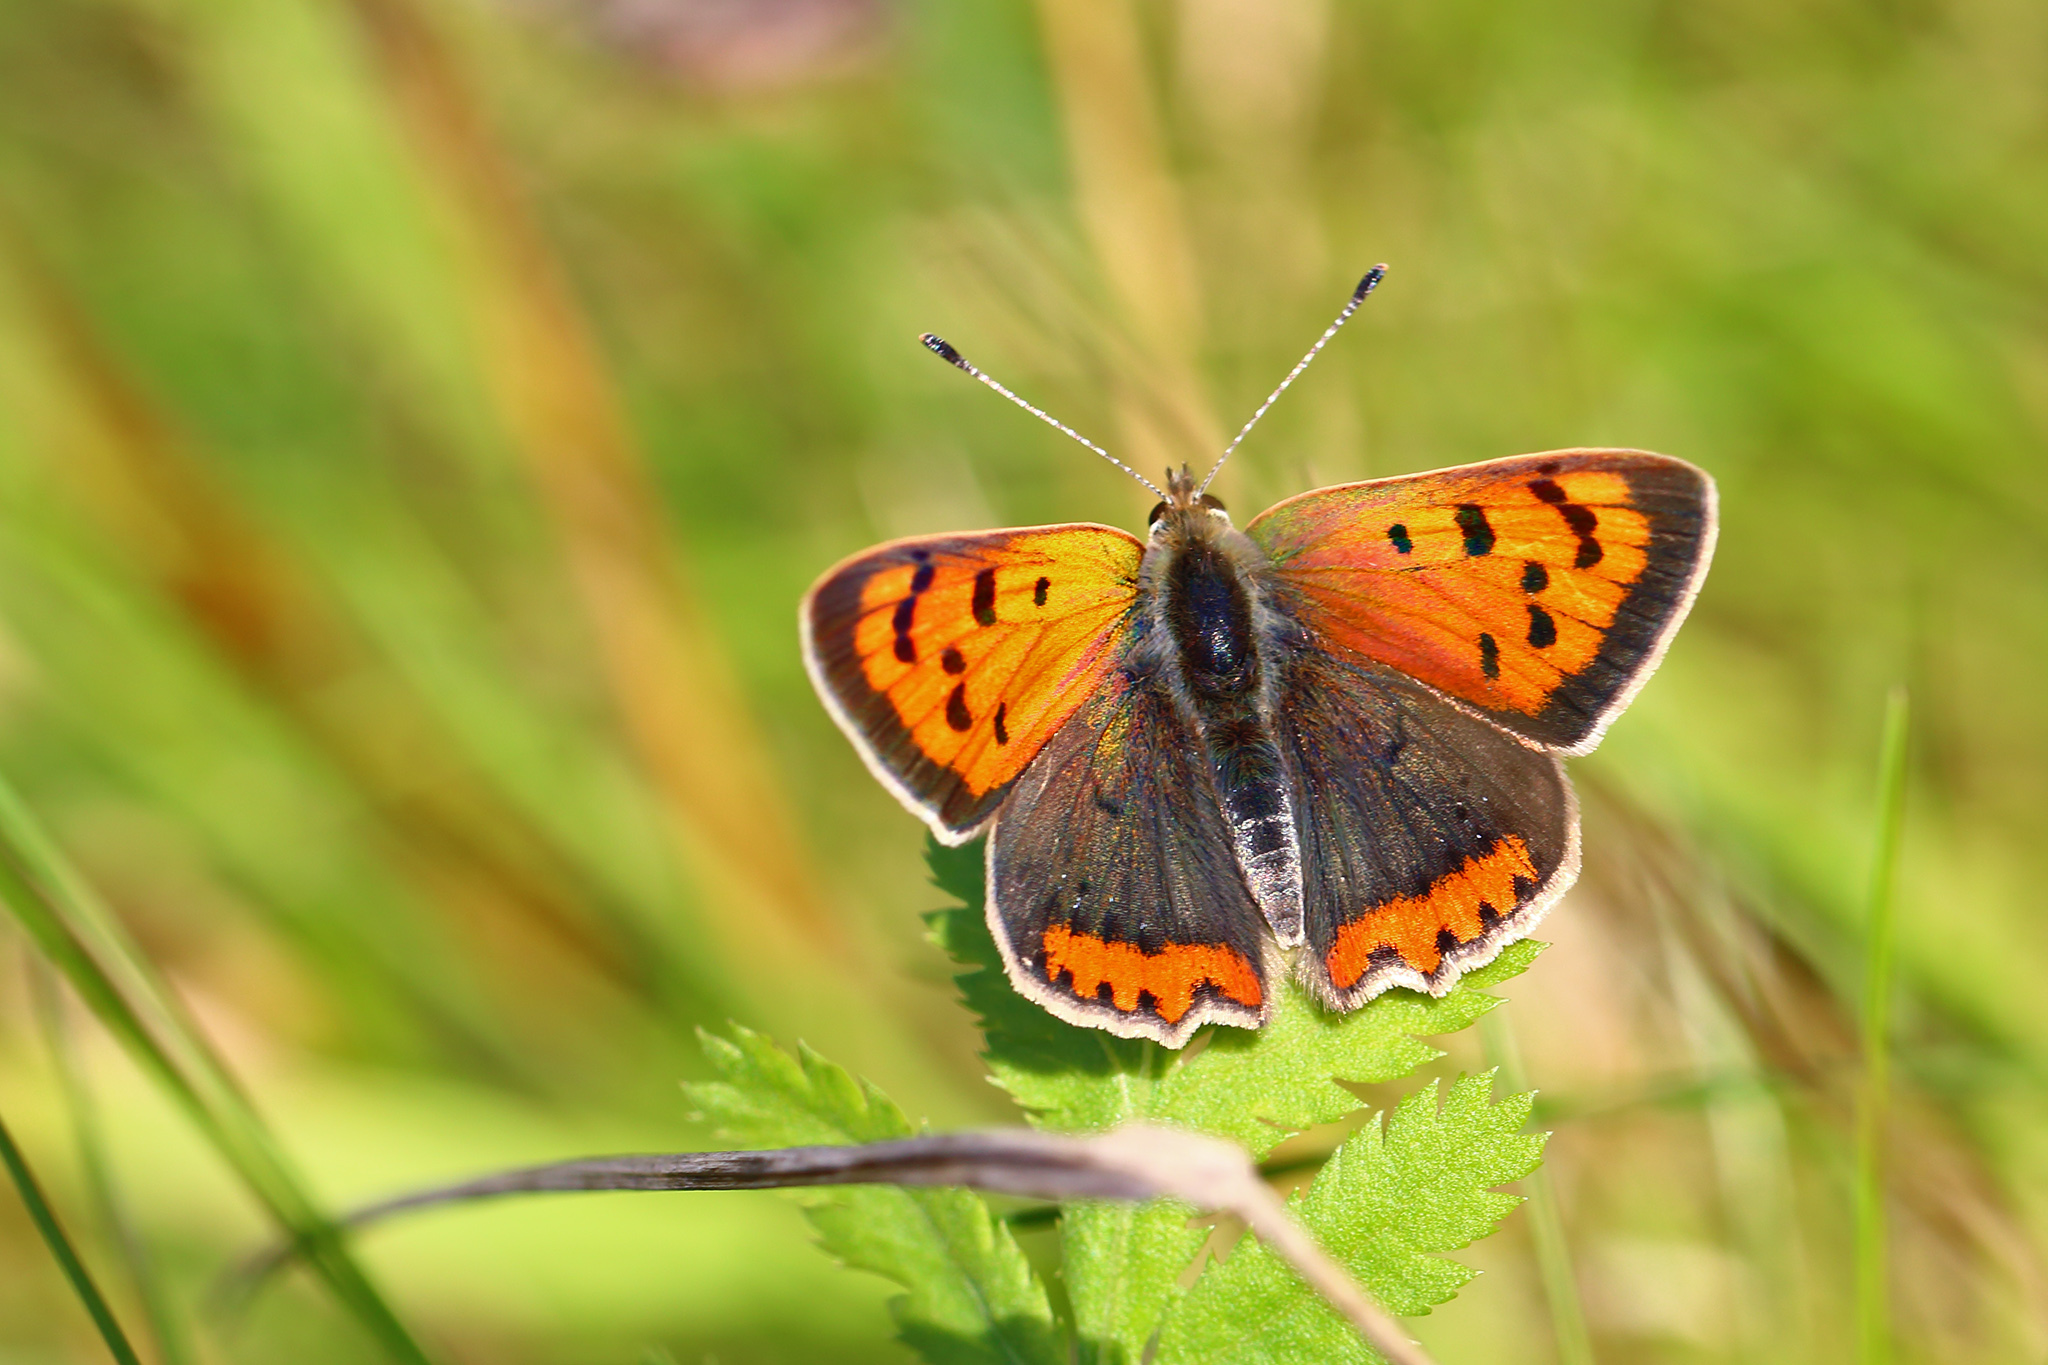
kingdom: Animalia
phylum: Arthropoda
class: Insecta
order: Lepidoptera
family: Lycaenidae
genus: Lycaena
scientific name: Lycaena phlaeas
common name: Small copper
